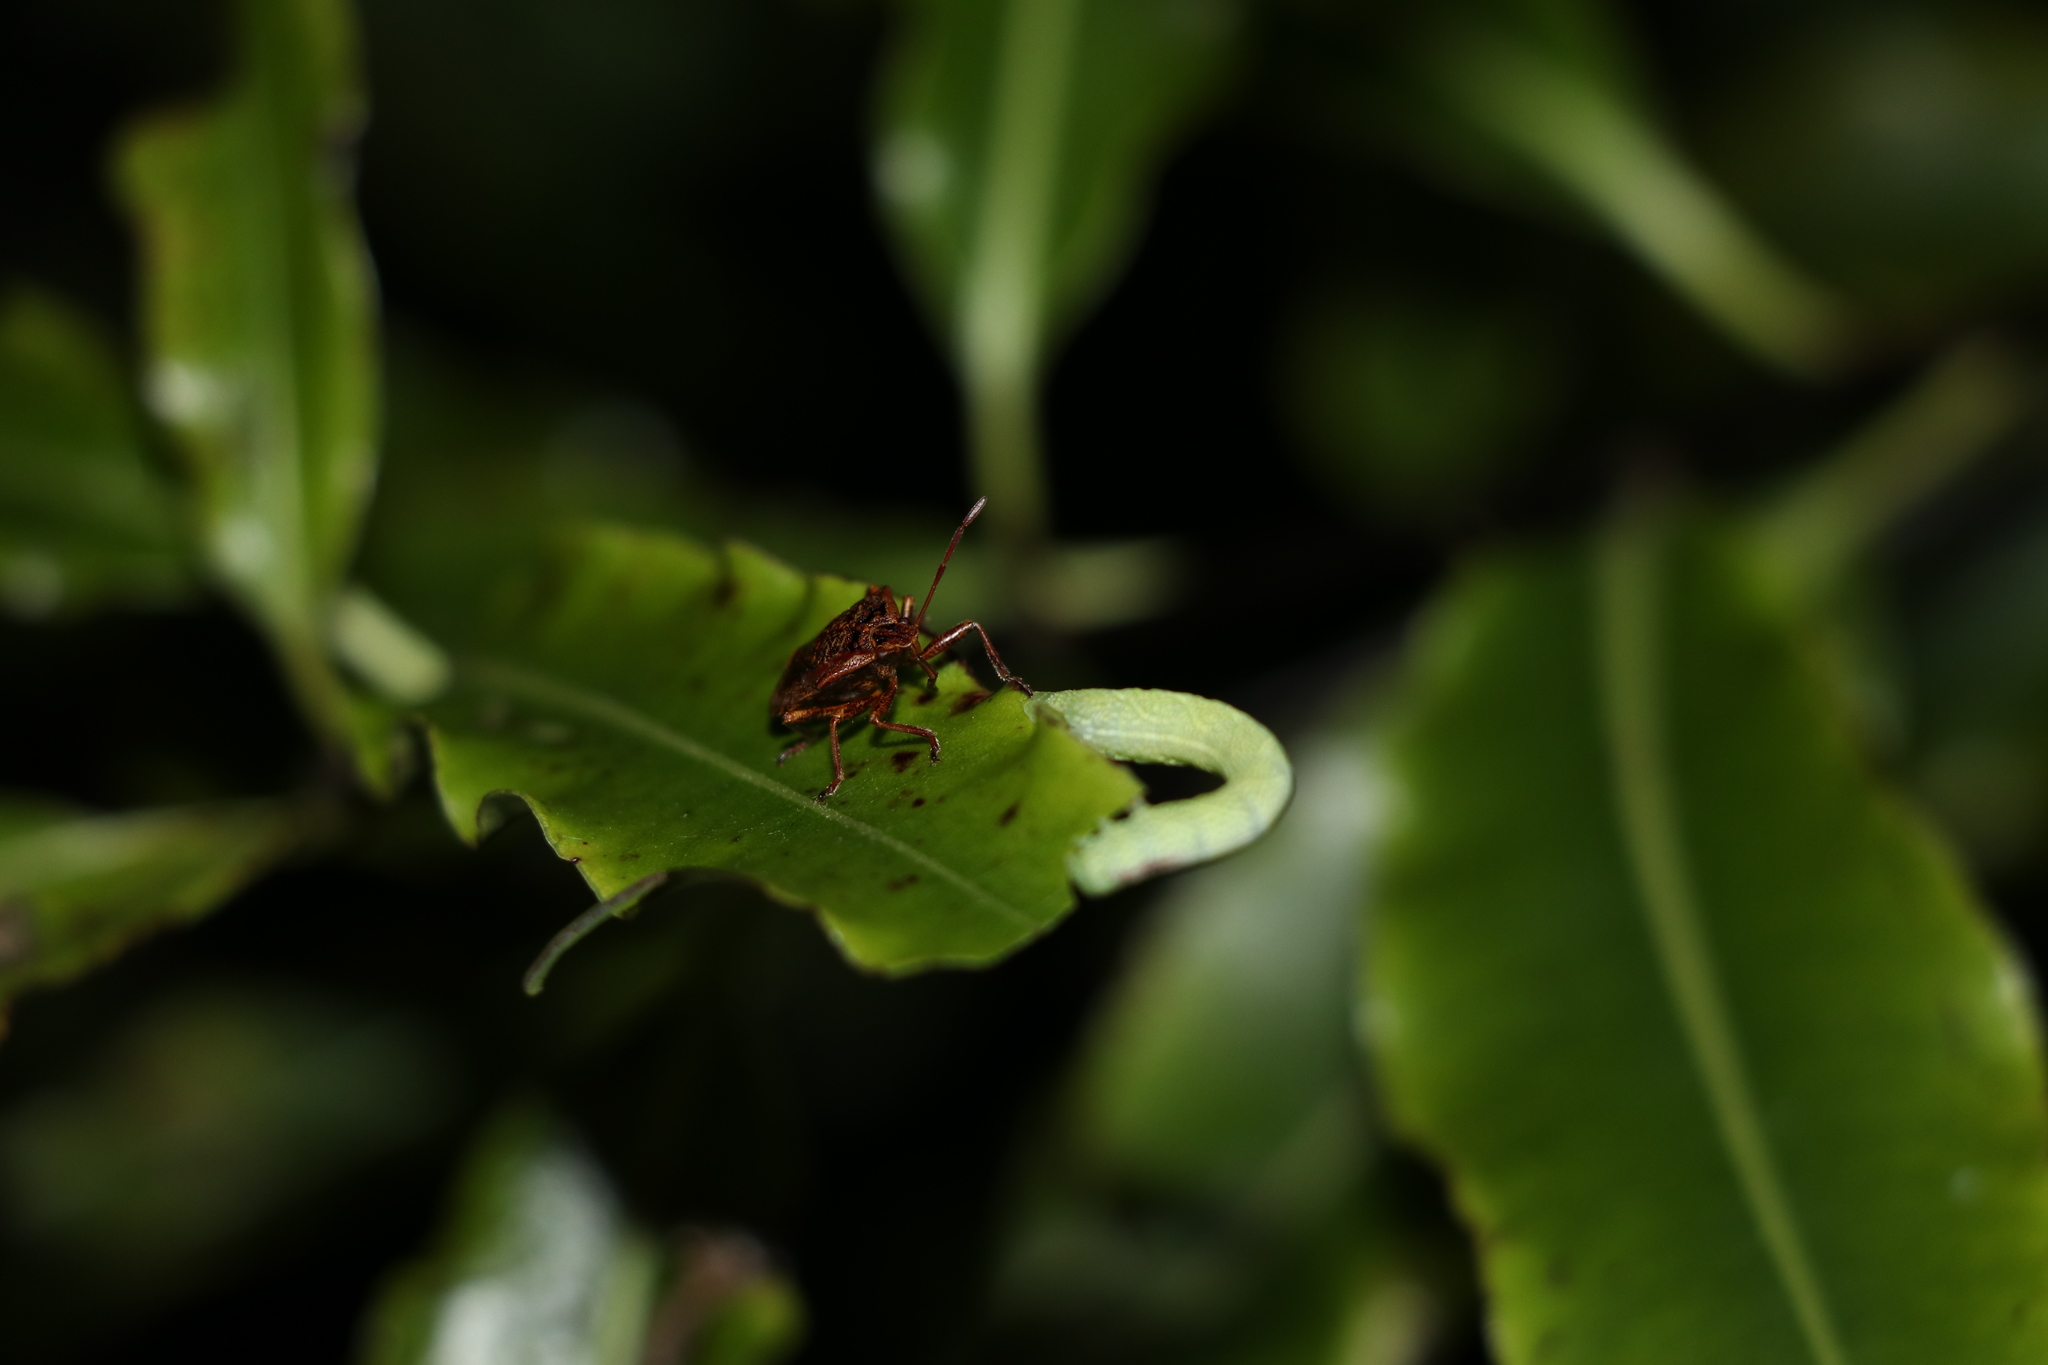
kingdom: Animalia
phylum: Arthropoda
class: Insecta
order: Hemiptera
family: Pentatomidae
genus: Cermatulus
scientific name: Cermatulus nasalis
